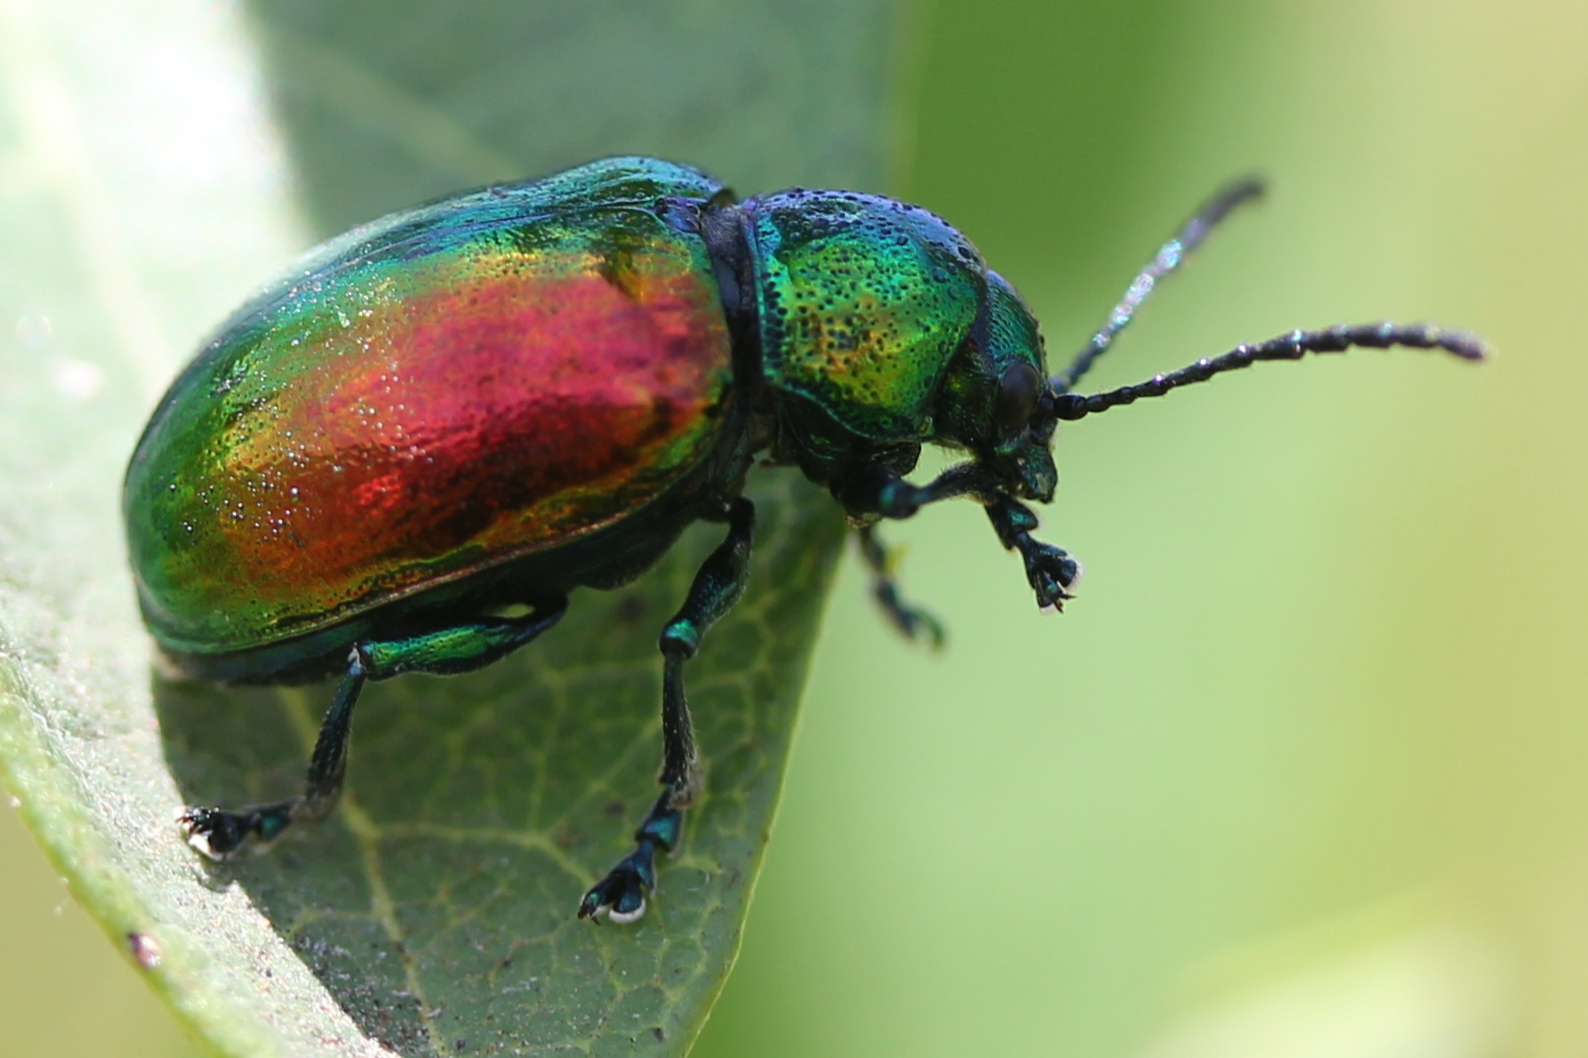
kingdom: Animalia
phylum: Arthropoda
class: Insecta
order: Coleoptera
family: Chrysomelidae
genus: Chrysochus
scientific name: Chrysochus auratus
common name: Dogbane leaf beetle
